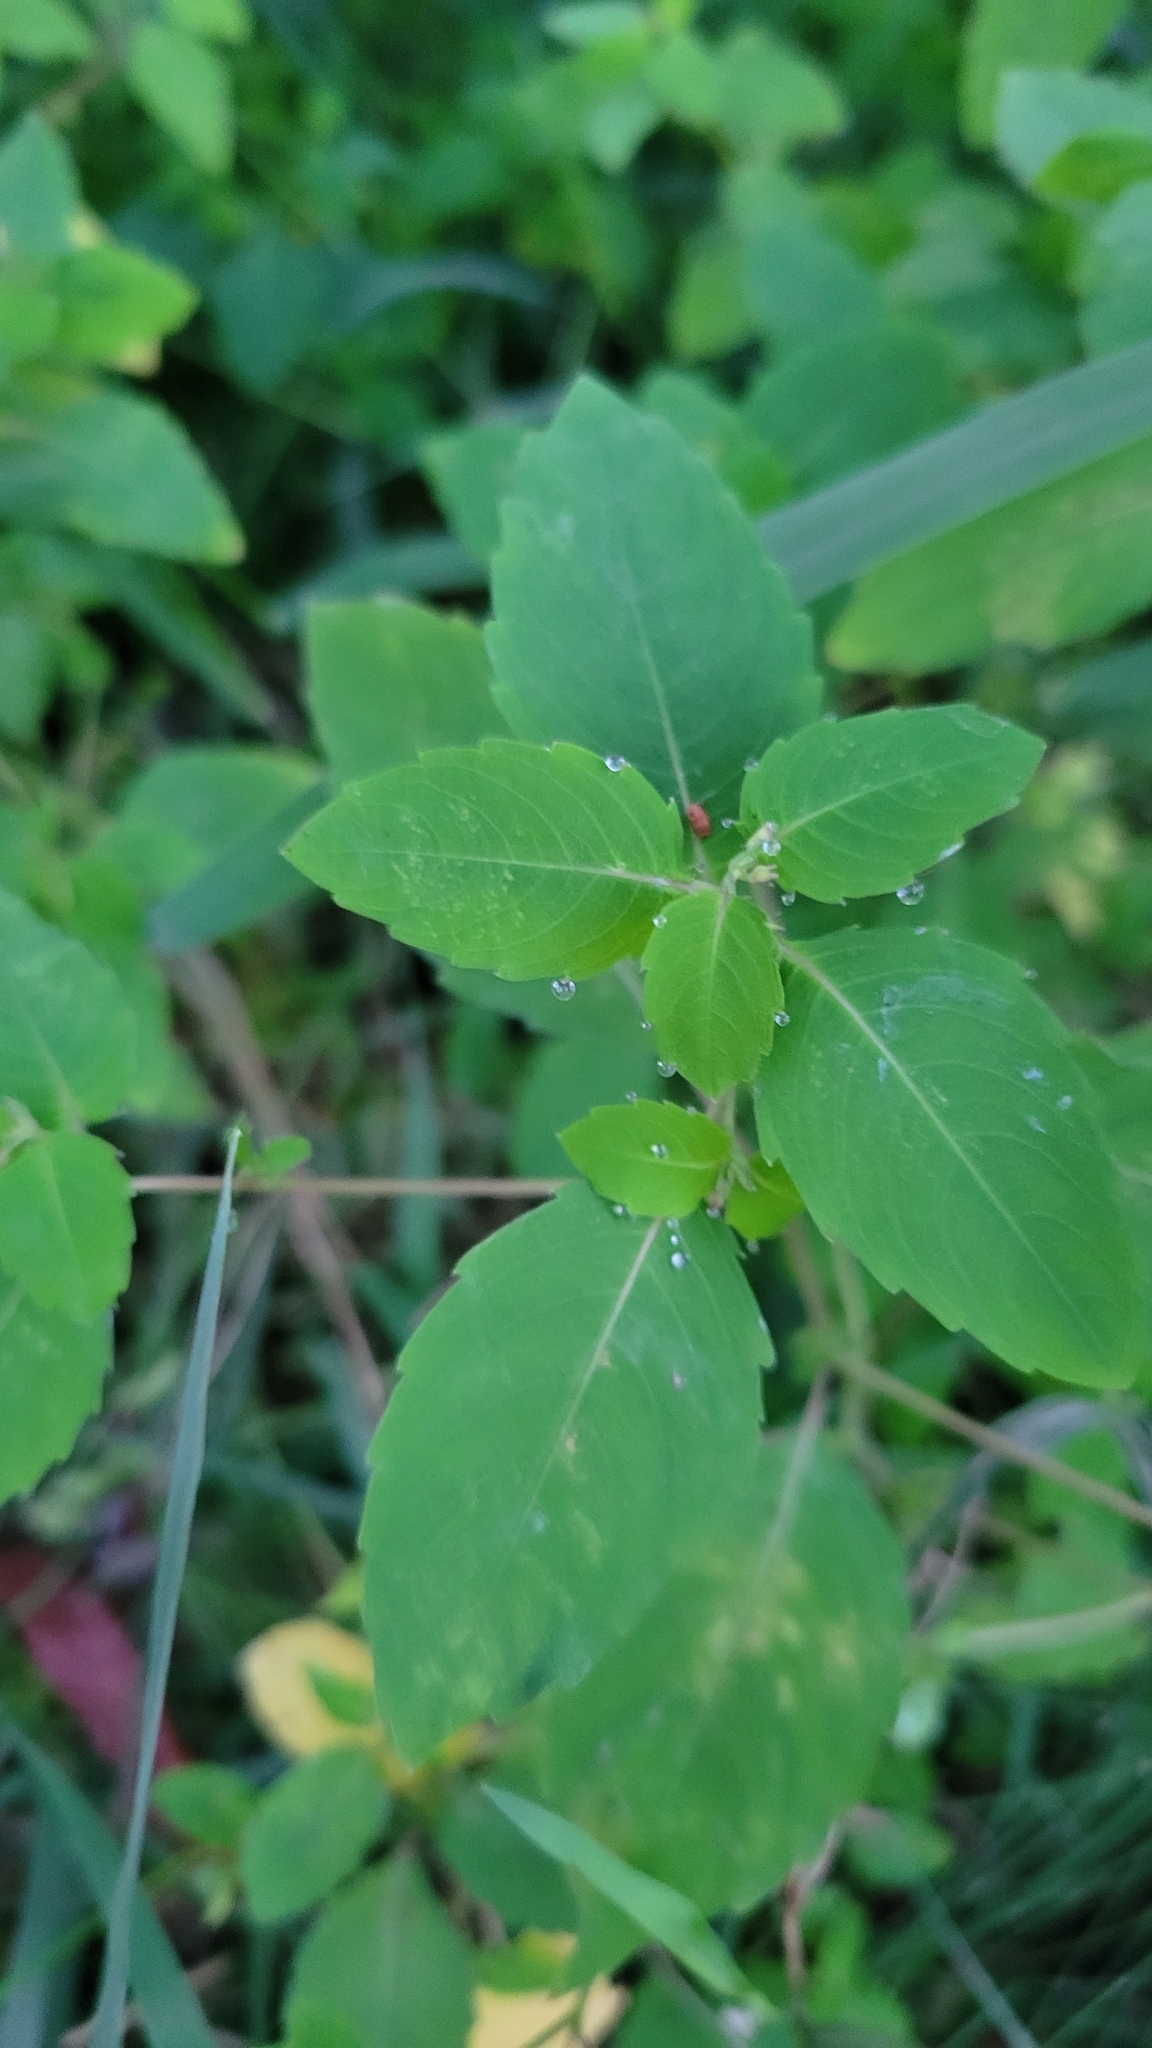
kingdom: Plantae
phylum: Tracheophyta
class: Magnoliopsida
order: Ericales
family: Balsaminaceae
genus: Impatiens
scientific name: Impatiens capensis
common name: Orange balsam
